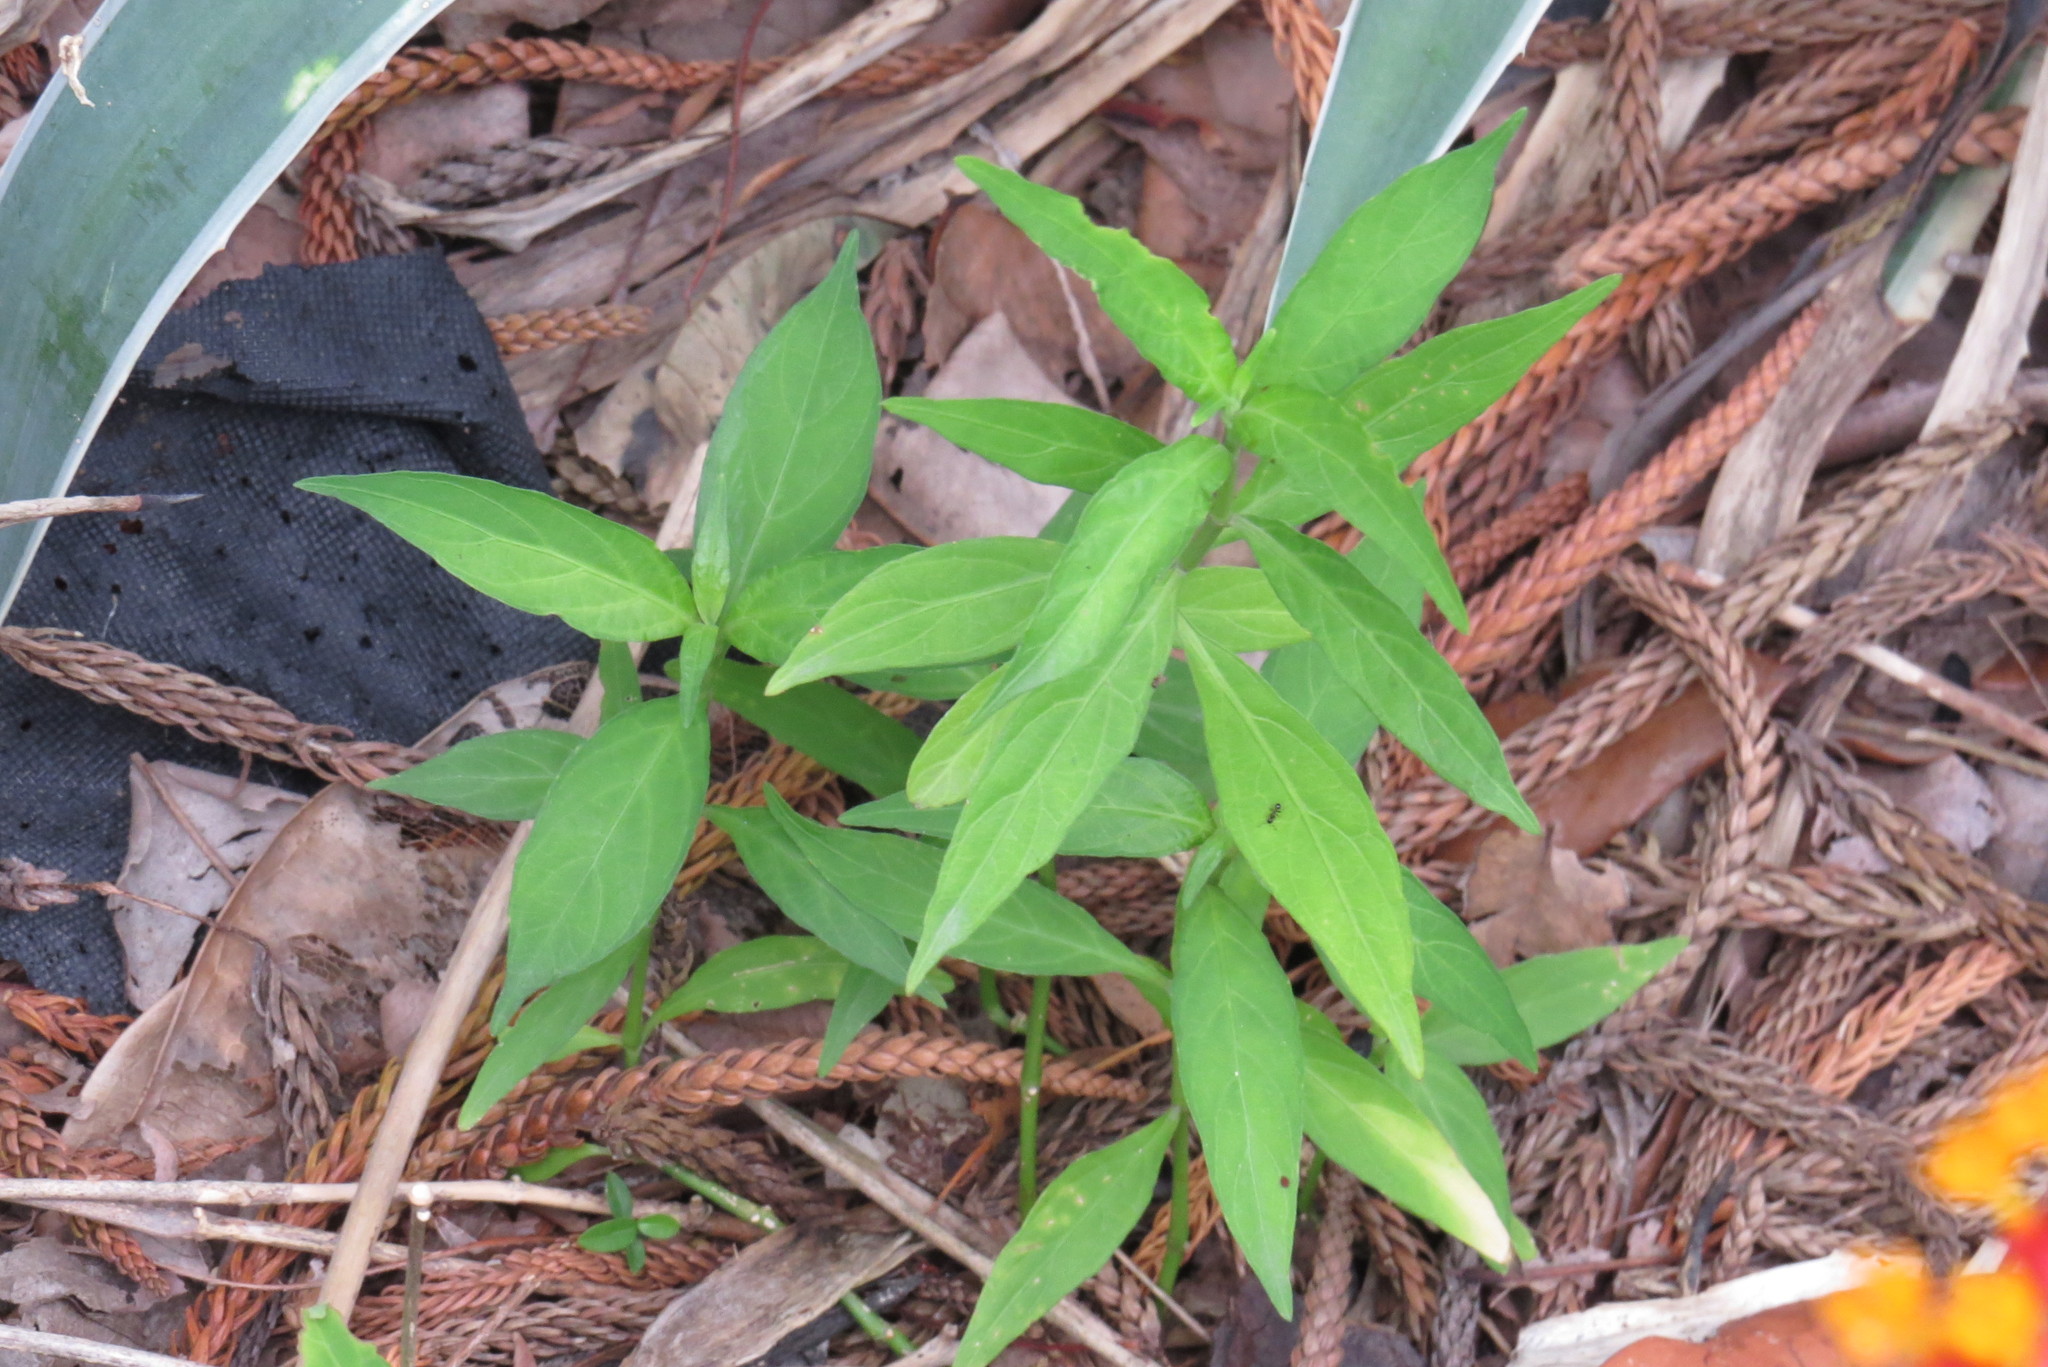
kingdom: Plantae
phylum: Tracheophyta
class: Magnoliopsida
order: Lamiales
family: Acanthaceae
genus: Justicia
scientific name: Justicia runyonii
